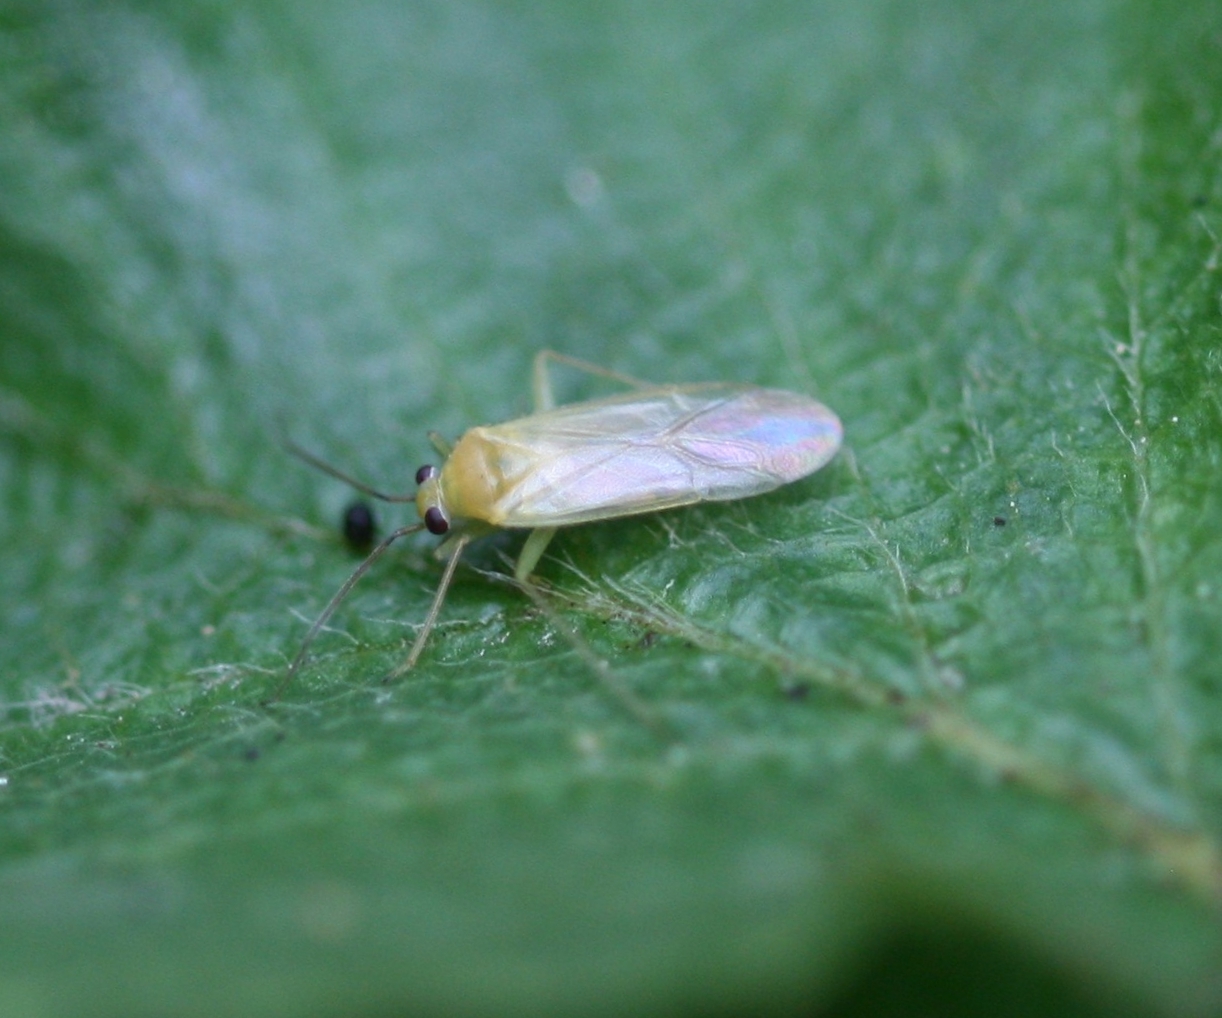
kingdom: Animalia
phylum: Arthropoda
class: Insecta
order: Hemiptera
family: Miridae
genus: Phylus
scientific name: Phylus melanocephalus
